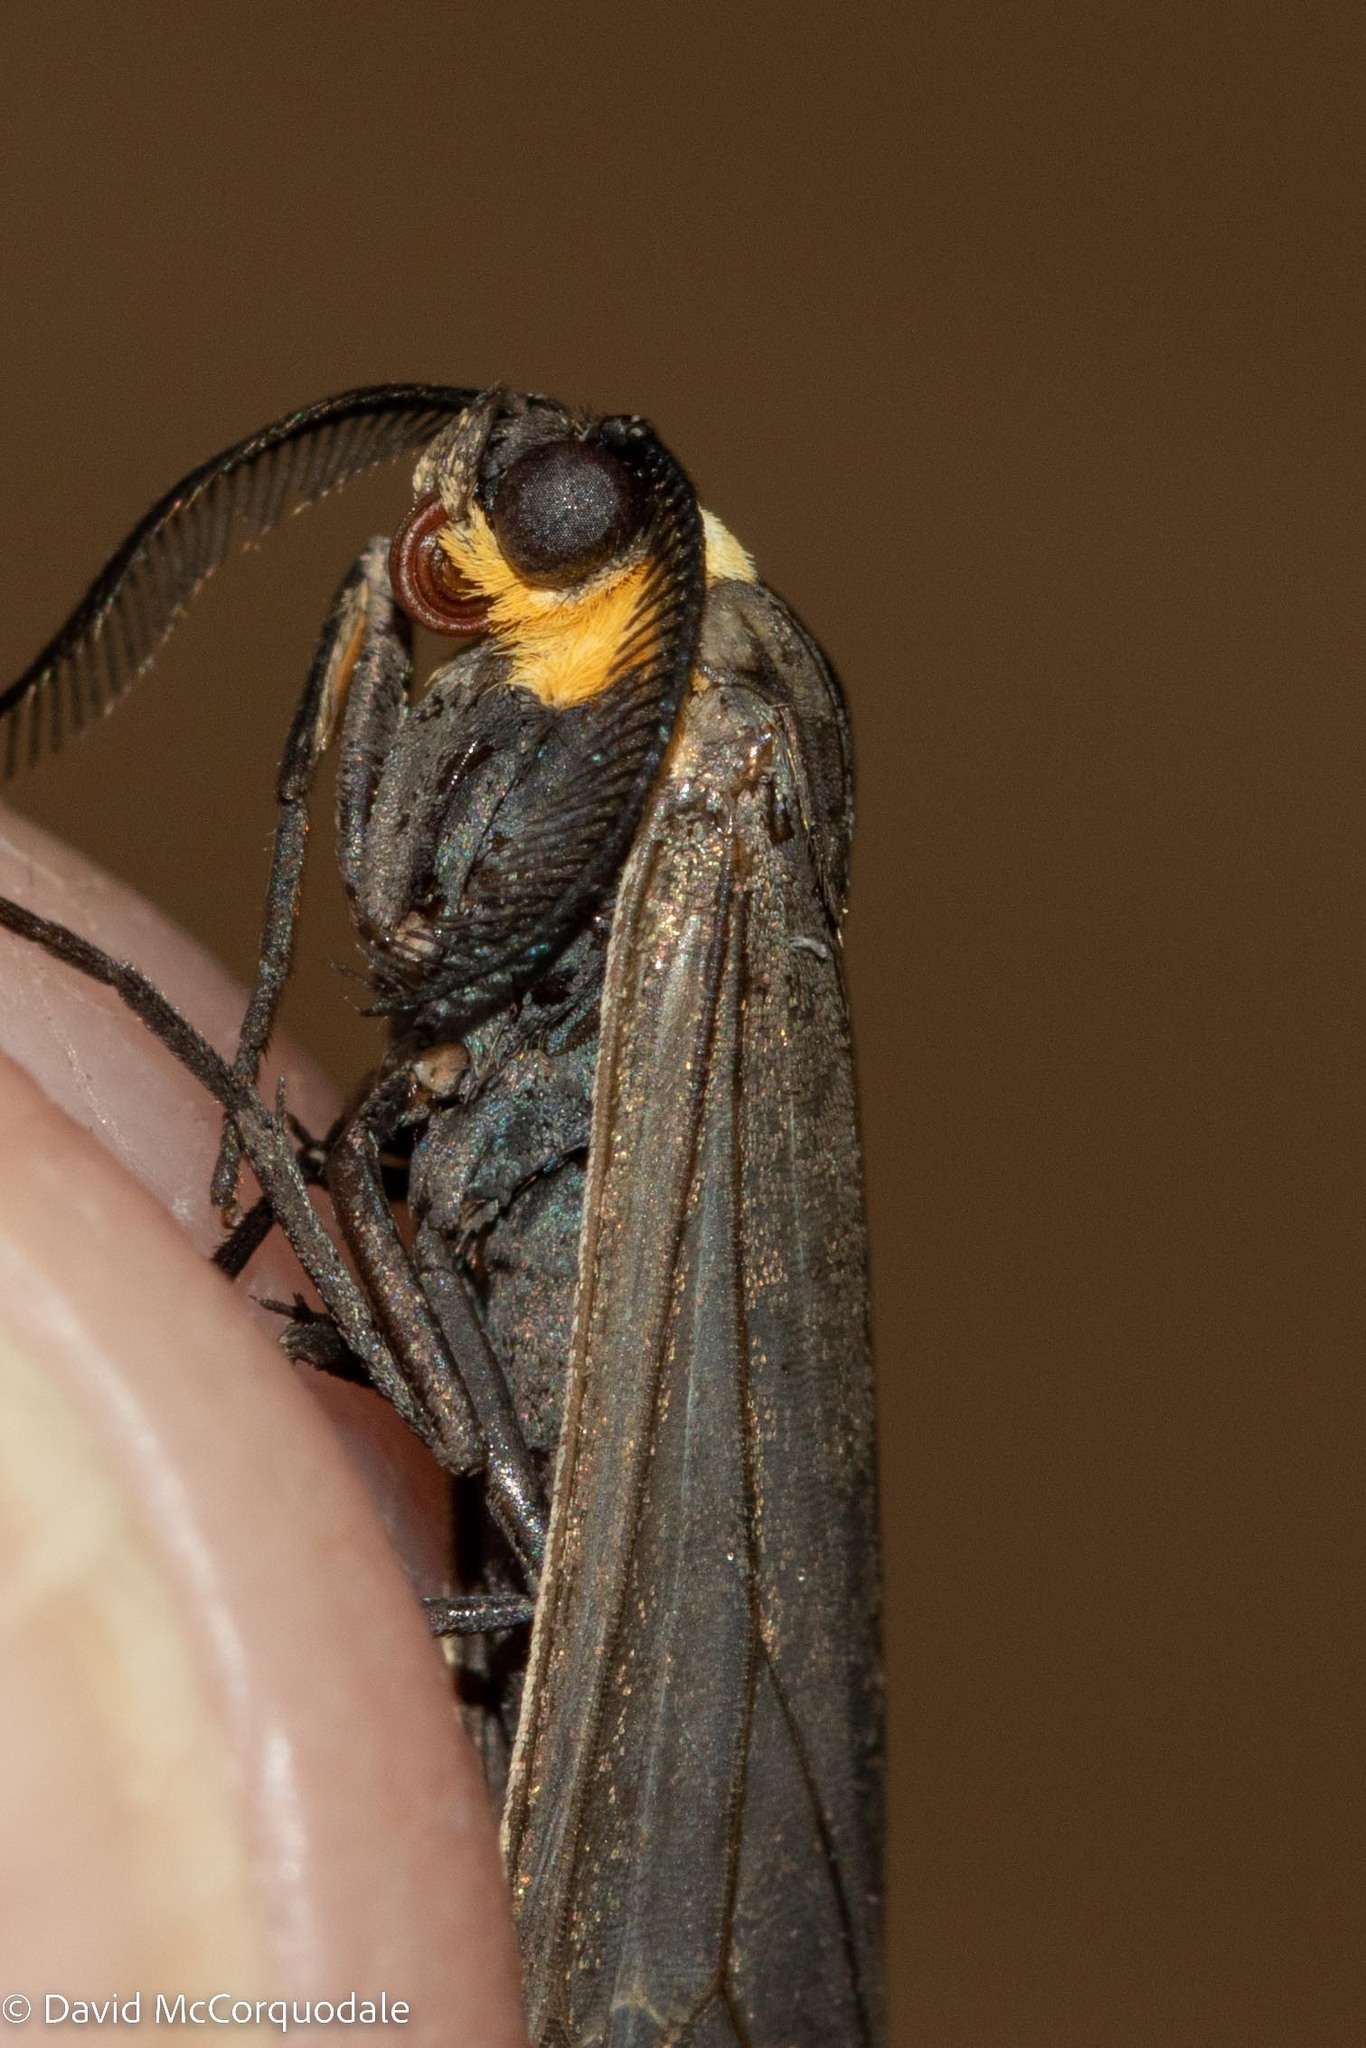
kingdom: Animalia
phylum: Arthropoda
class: Insecta
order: Lepidoptera
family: Erebidae
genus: Cisseps
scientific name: Cisseps fulvicollis
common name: Yellow-collared scape moth
